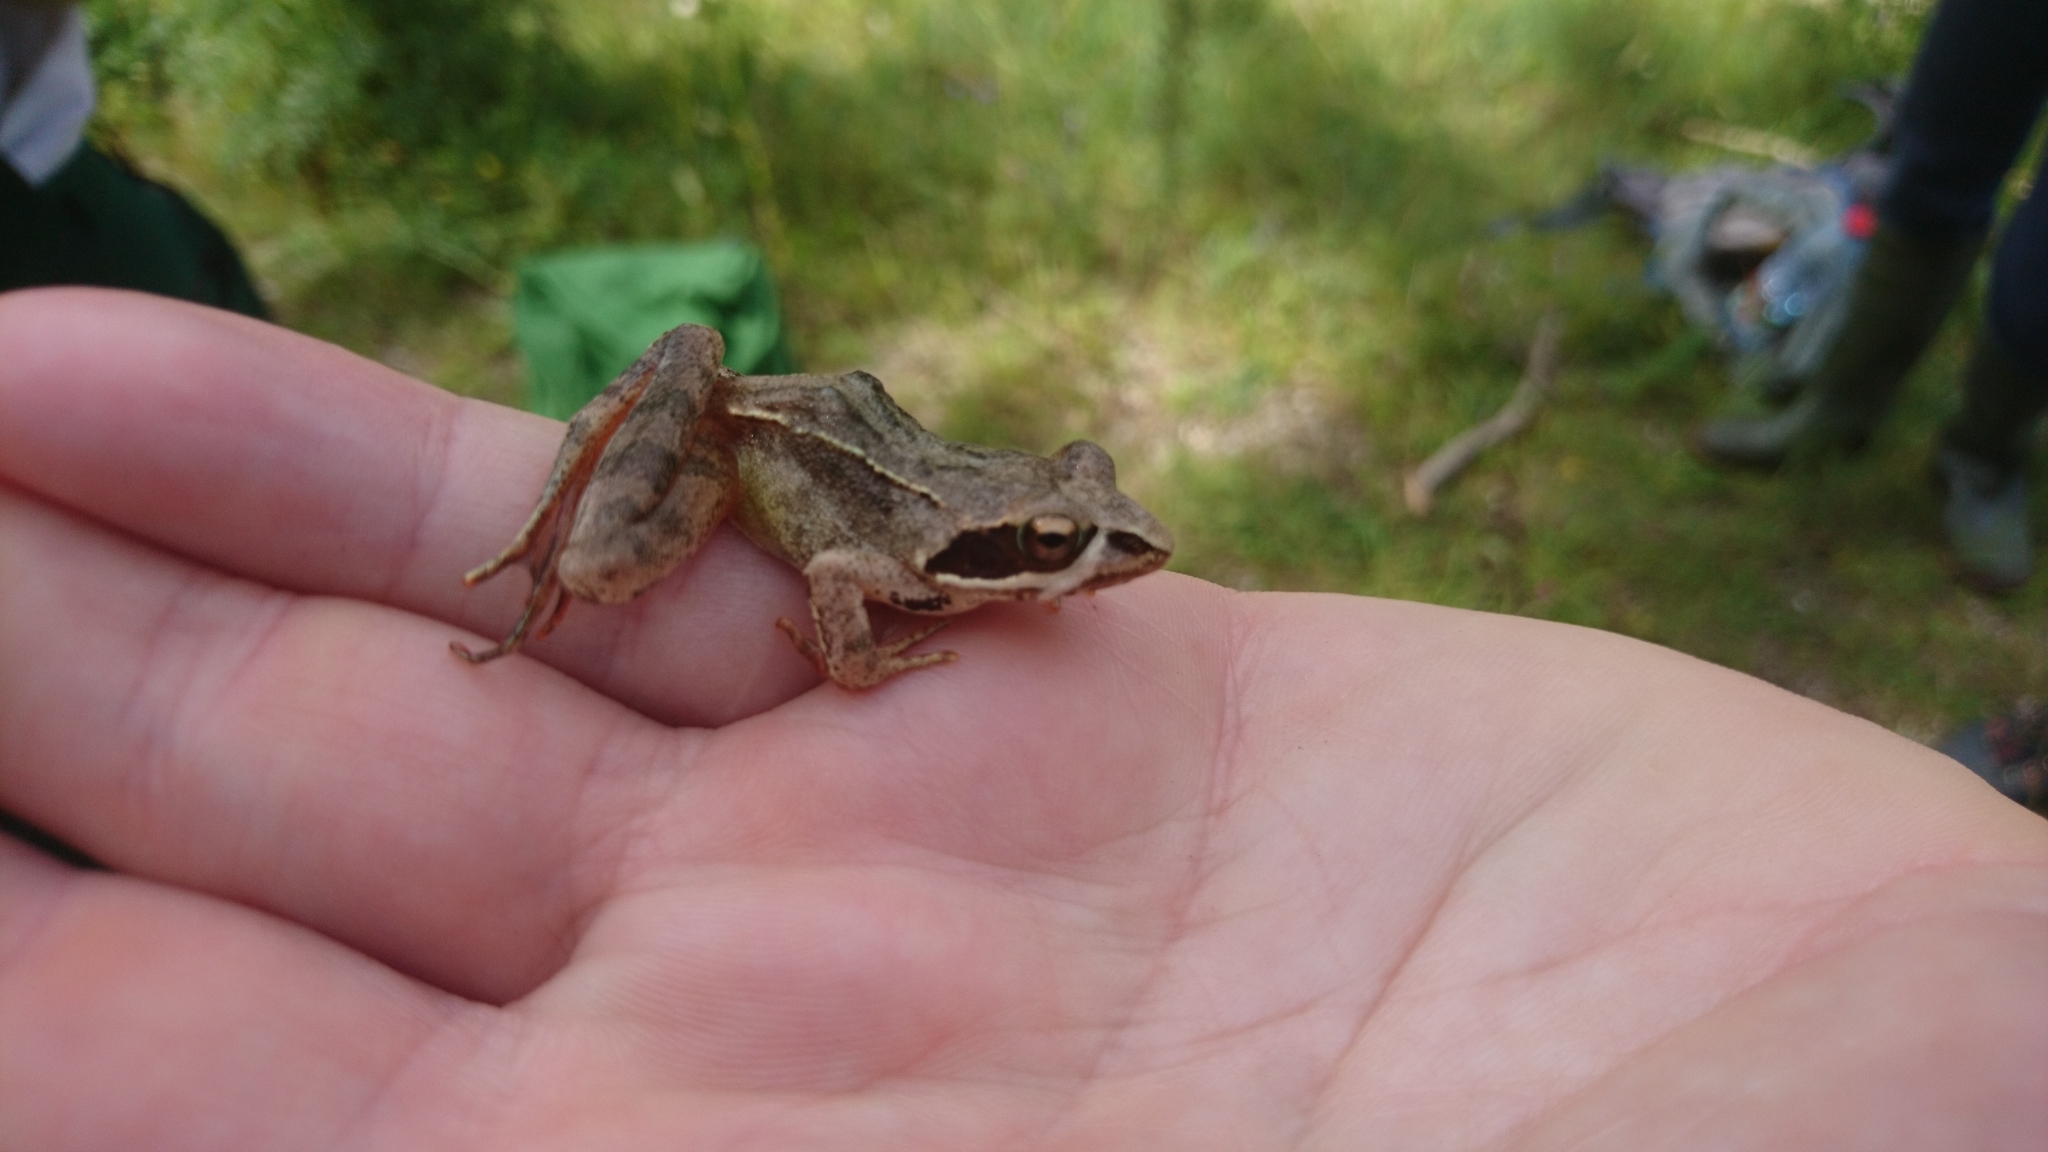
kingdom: Animalia
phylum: Chordata
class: Amphibia
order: Anura
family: Ranidae
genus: Rana
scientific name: Rana dalmatina
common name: Agile frog
